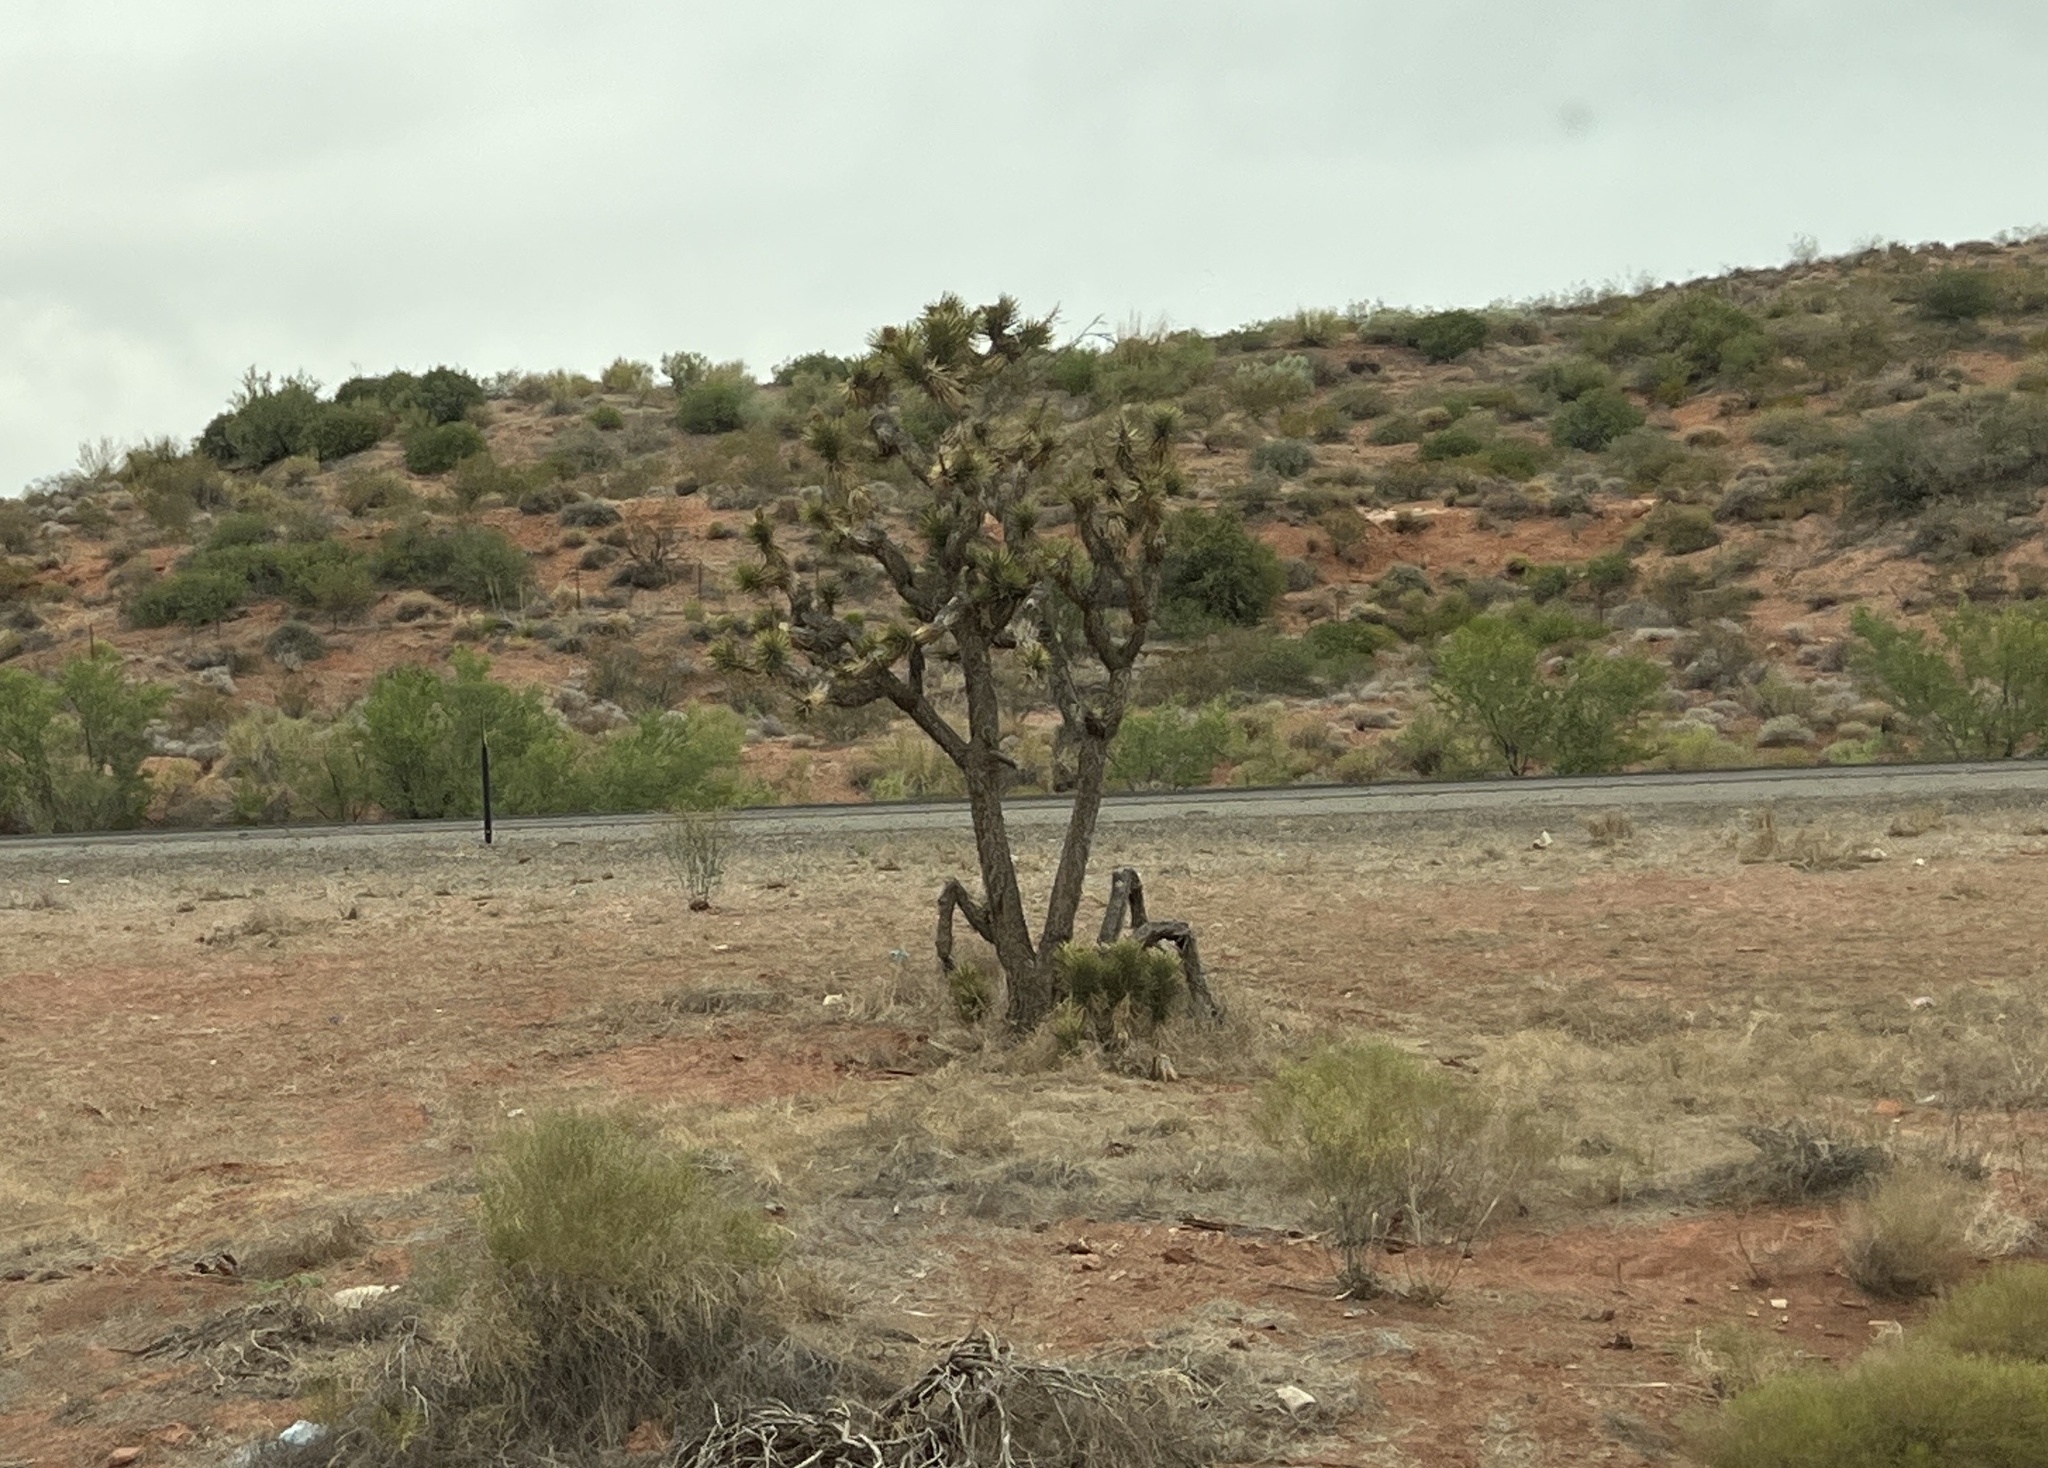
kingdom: Plantae
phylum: Tracheophyta
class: Liliopsida
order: Asparagales
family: Asparagaceae
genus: Yucca
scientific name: Yucca brevifolia
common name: Joshua tree
